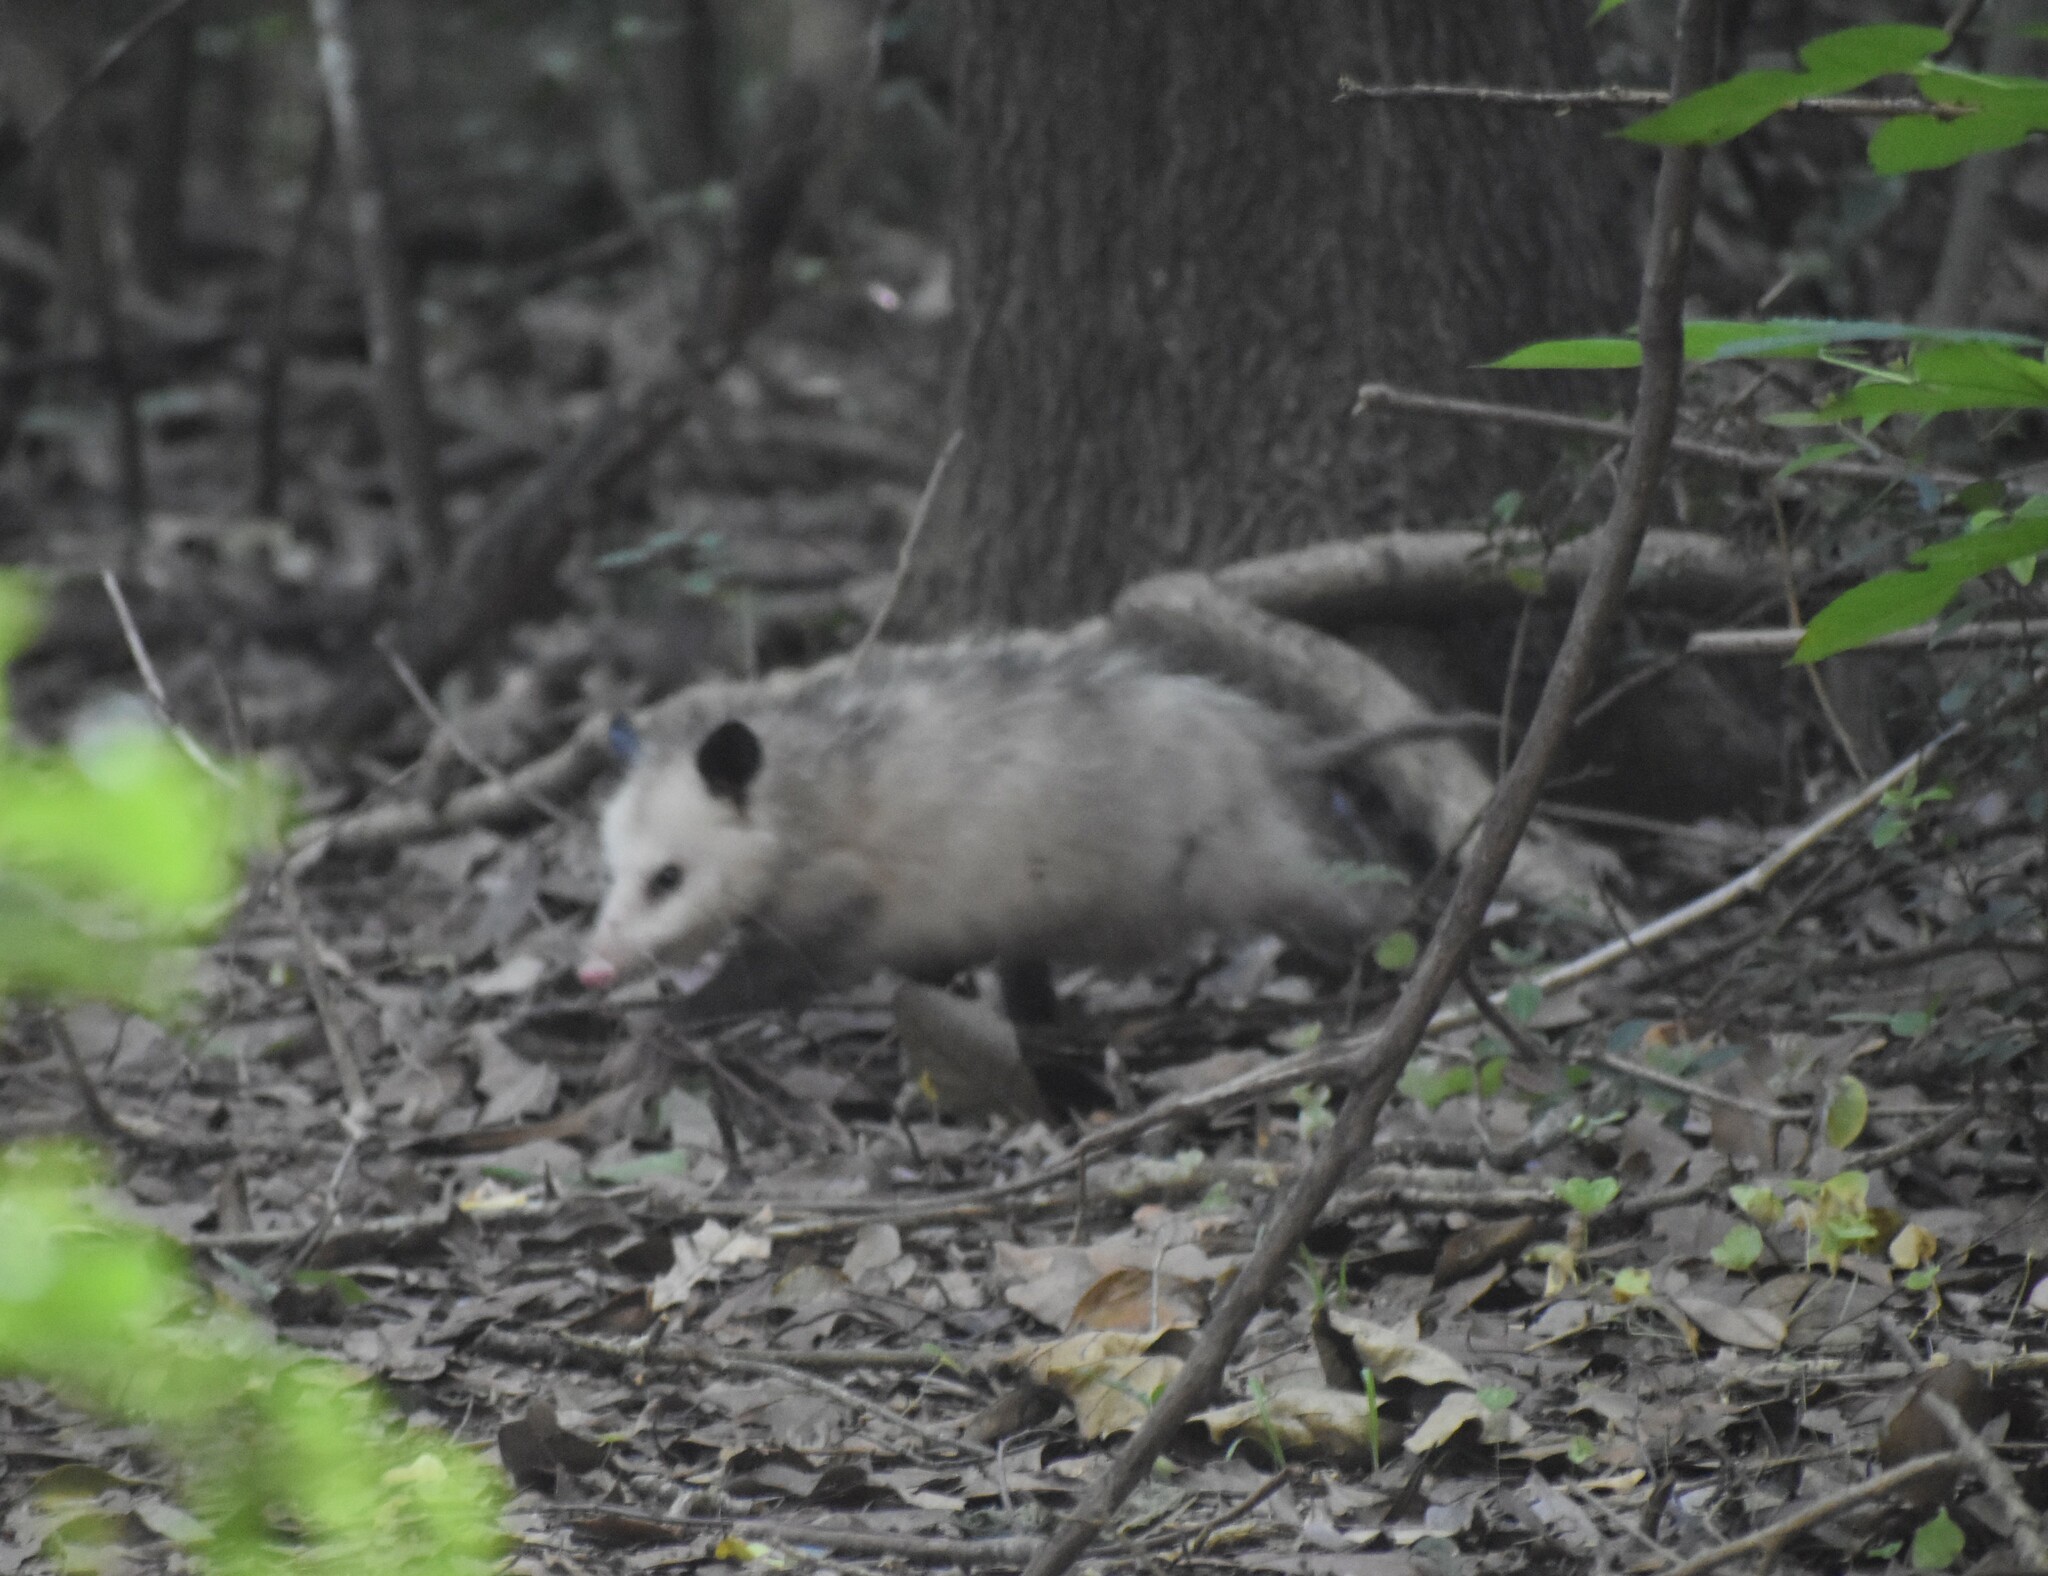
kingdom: Animalia
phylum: Chordata
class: Mammalia
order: Didelphimorphia
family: Didelphidae
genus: Didelphis
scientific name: Didelphis virginiana
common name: Virginia opossum
